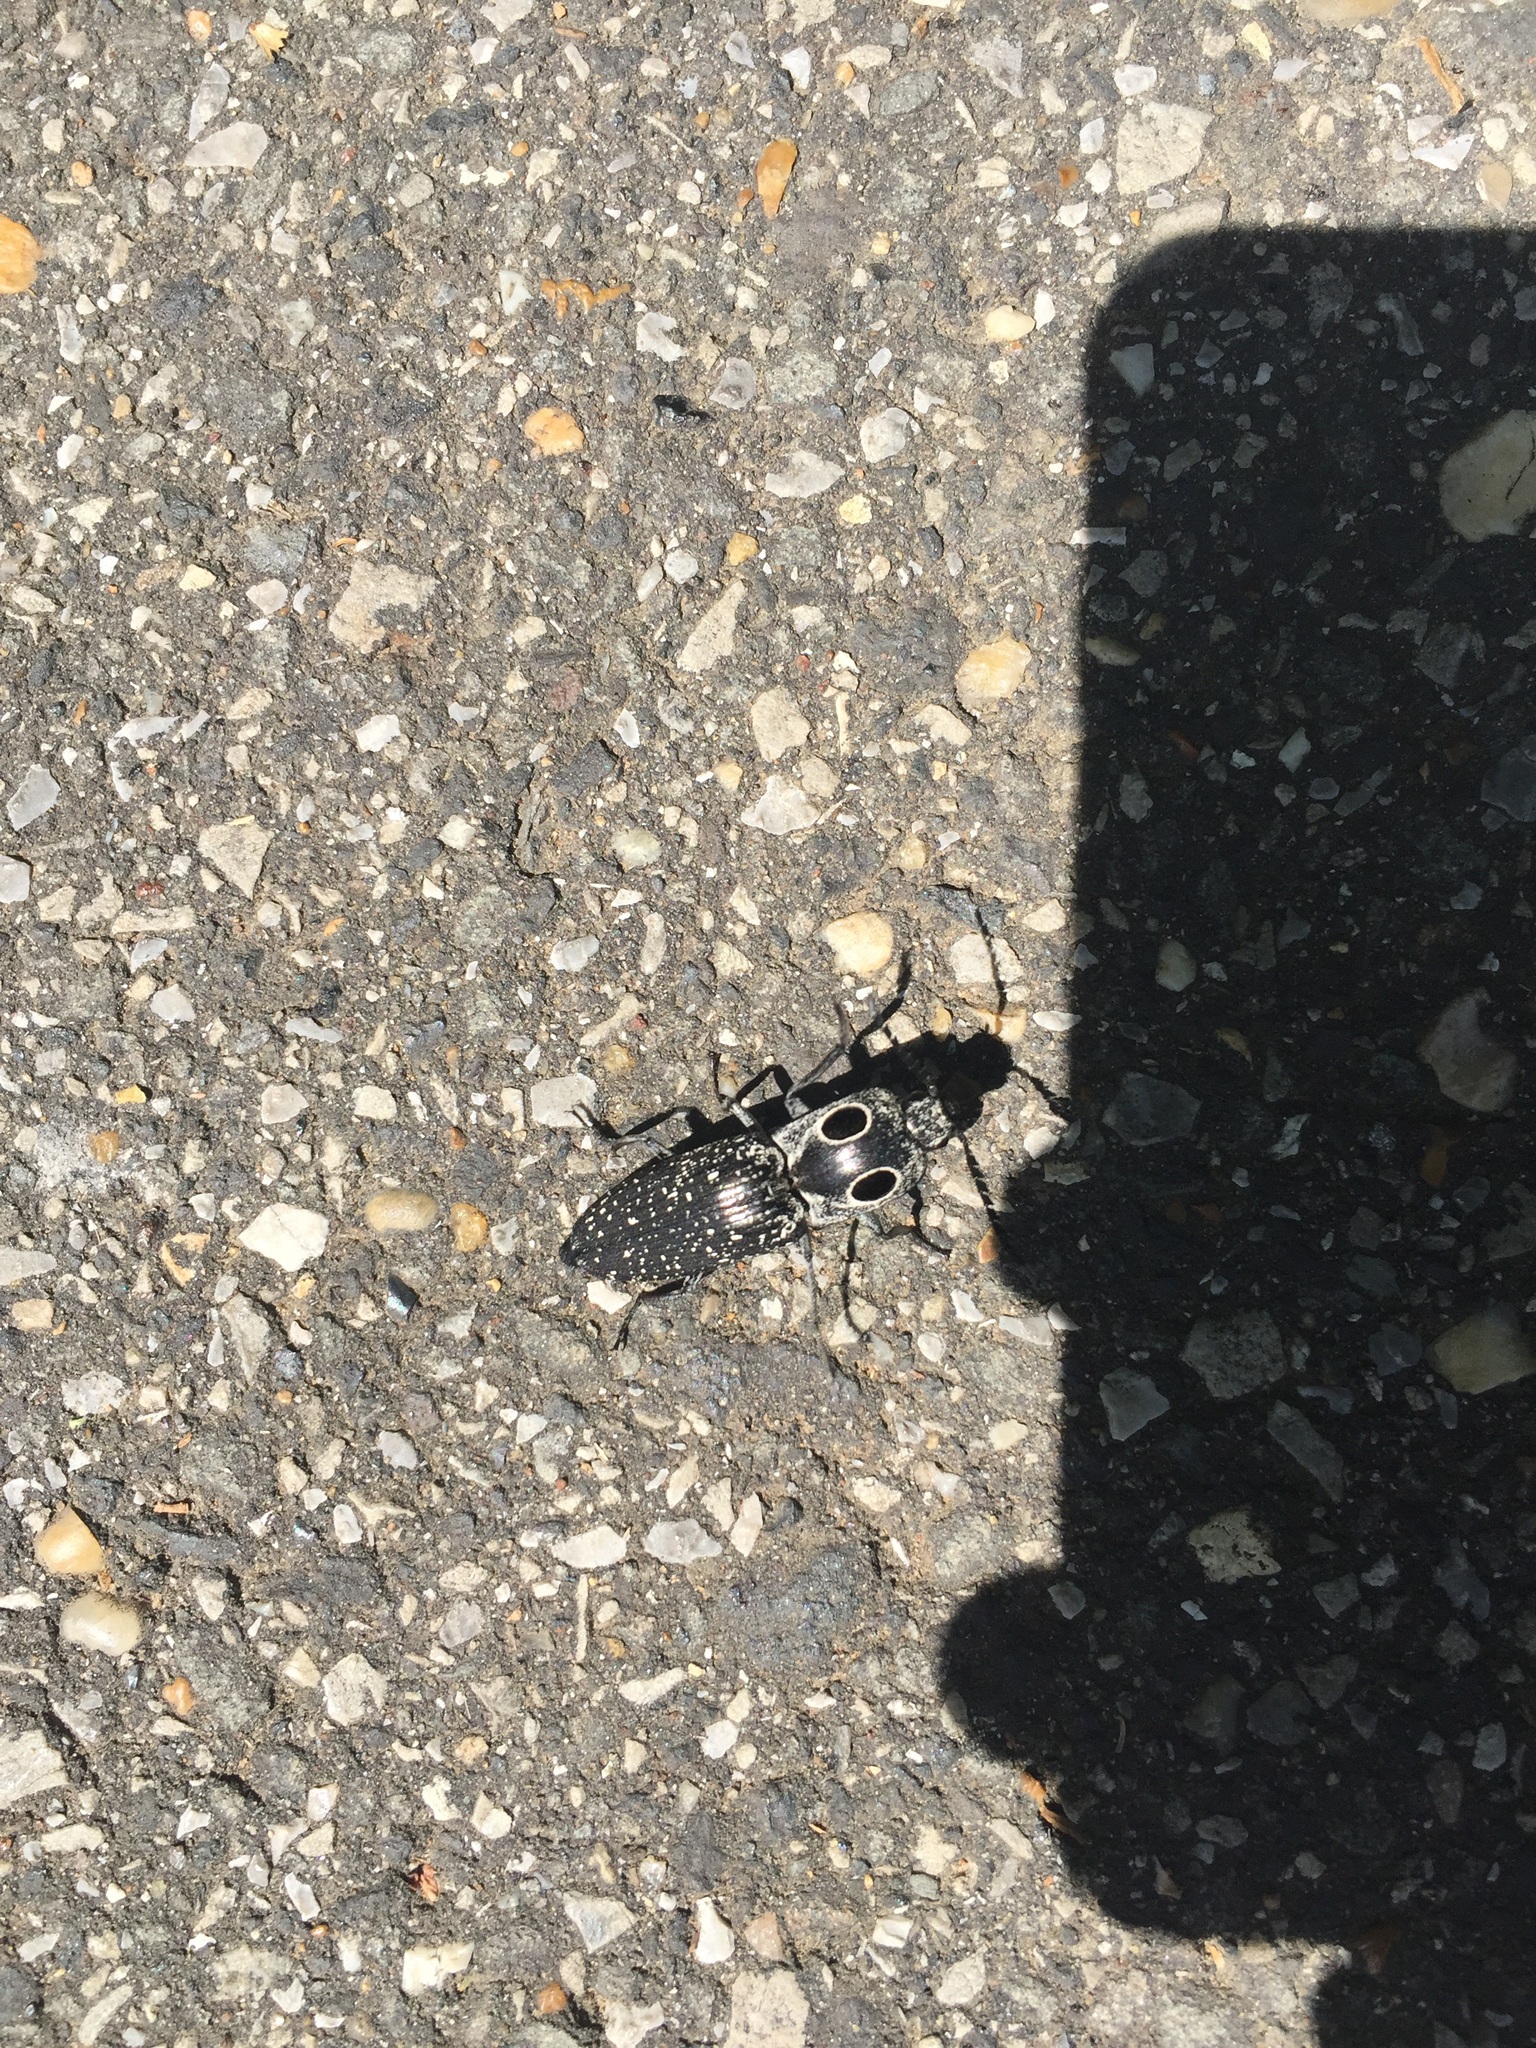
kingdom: Animalia
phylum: Arthropoda
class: Insecta
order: Coleoptera
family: Elateridae
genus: Alaus
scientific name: Alaus oculatus
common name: Eastern eyed click beetle
